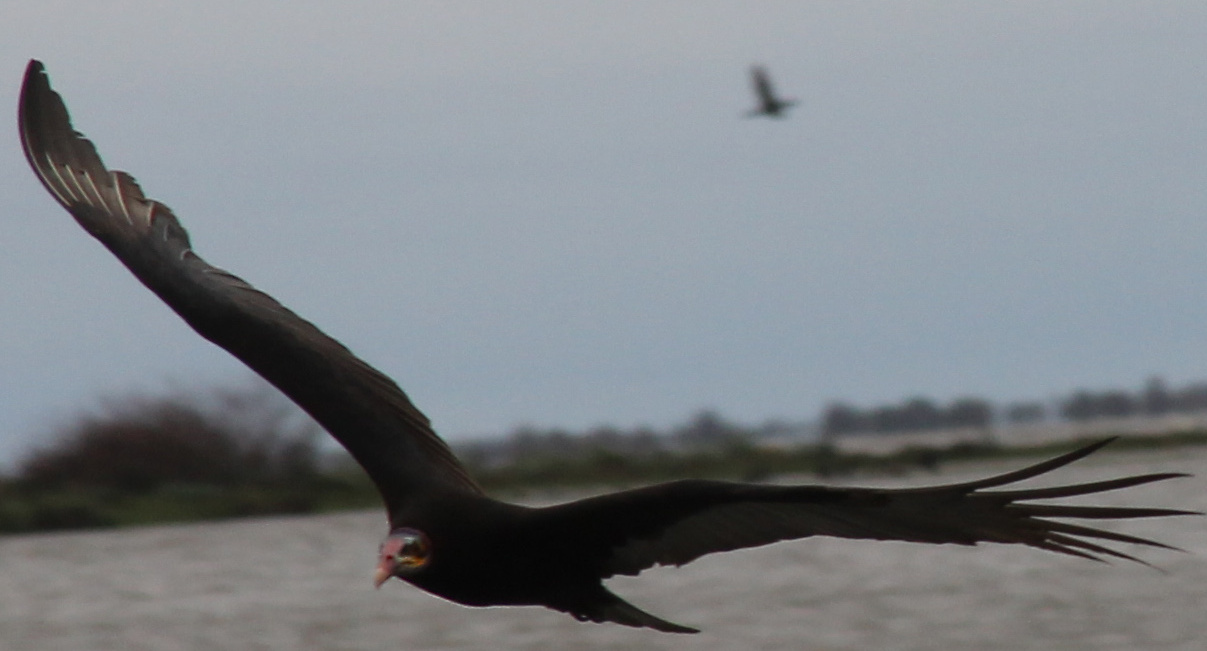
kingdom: Animalia
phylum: Chordata
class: Aves
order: Accipitriformes
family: Cathartidae
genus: Cathartes
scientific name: Cathartes burrovianus
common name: Lesser yellow-headed vulture
